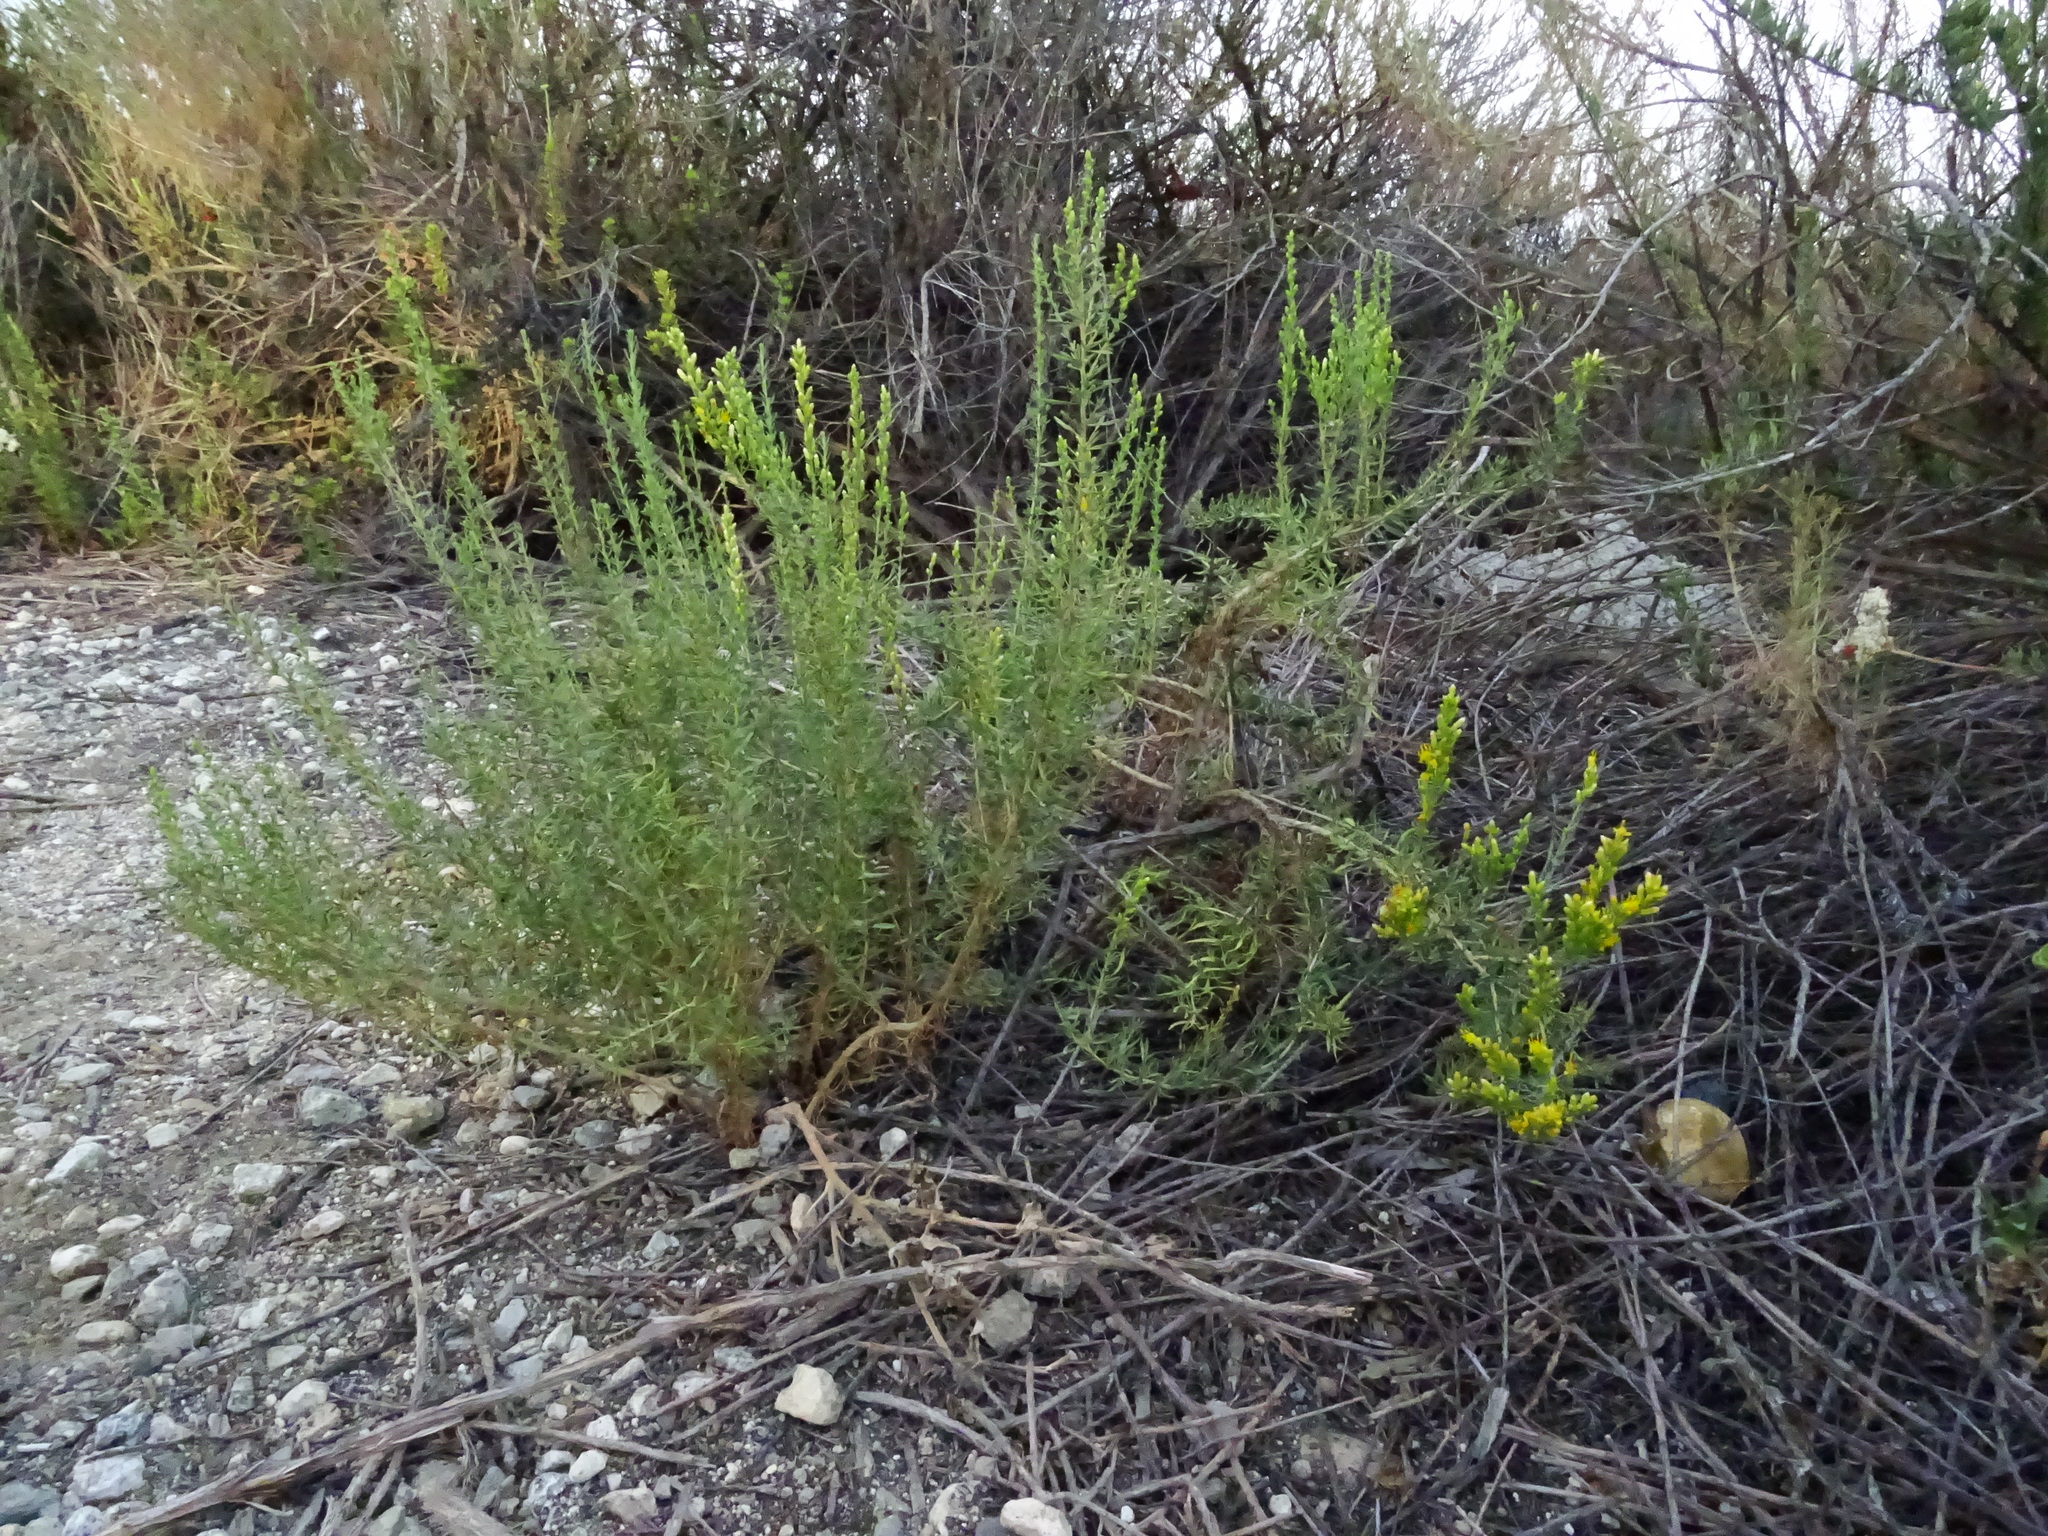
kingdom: Plantae
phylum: Tracheophyta
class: Magnoliopsida
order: Asterales
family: Asteraceae
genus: Ericameria
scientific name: Ericameria palmeri
